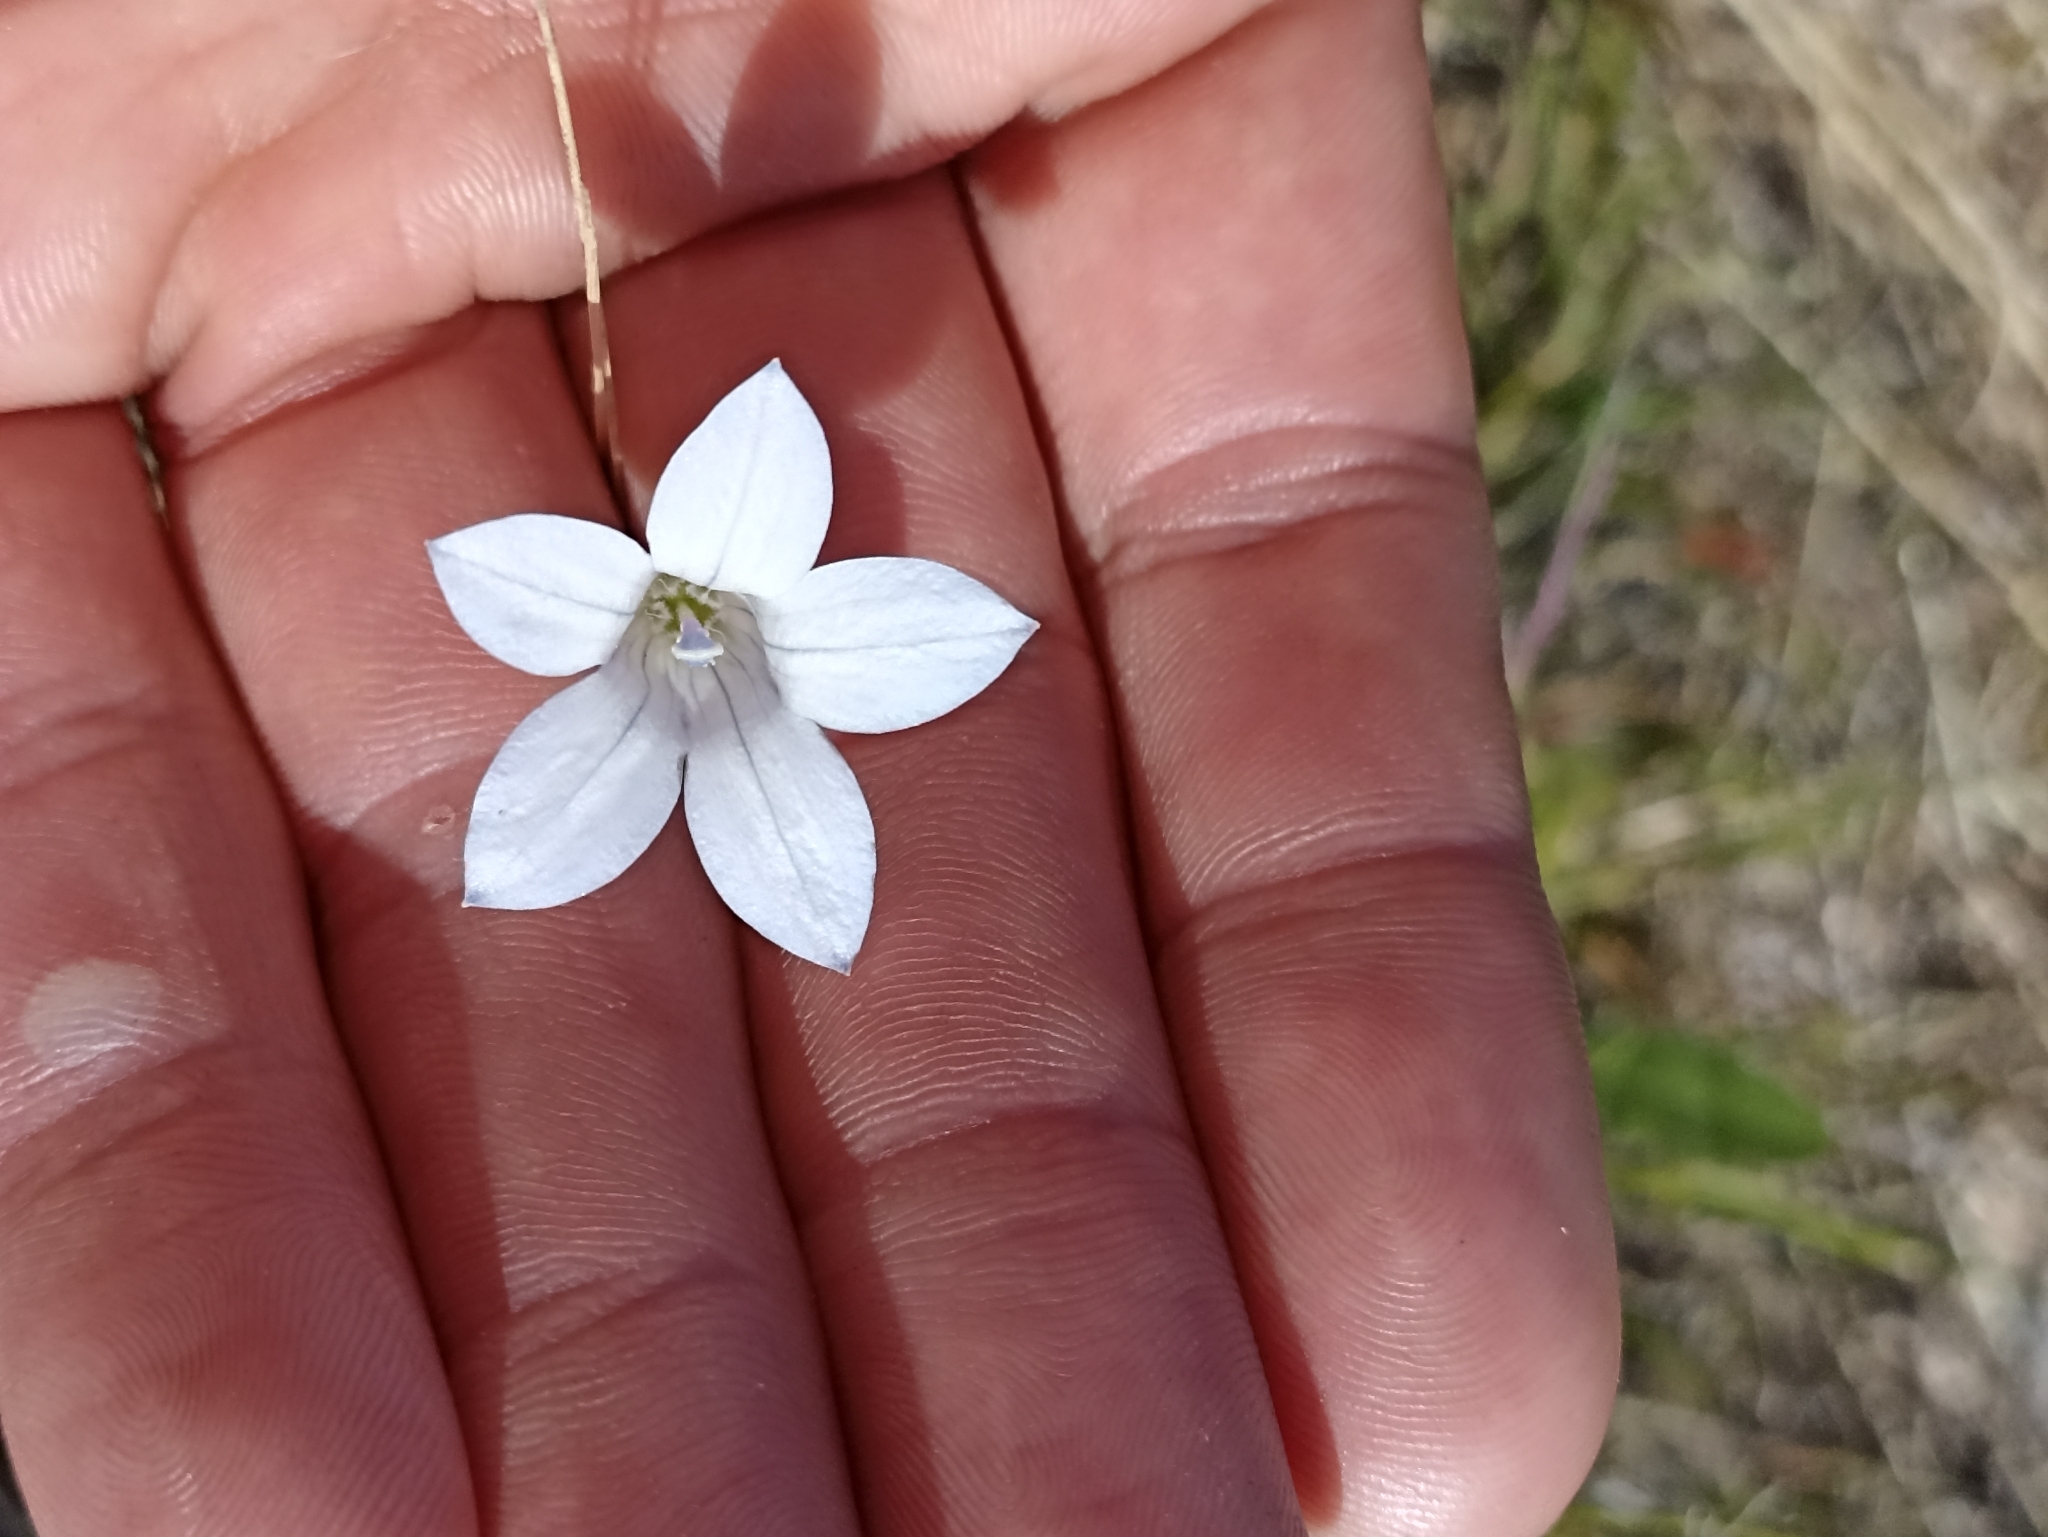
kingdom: Plantae
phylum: Tracheophyta
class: Magnoliopsida
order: Asterales
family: Campanulaceae
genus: Wahlenbergia
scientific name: Wahlenbergia albomarginata
